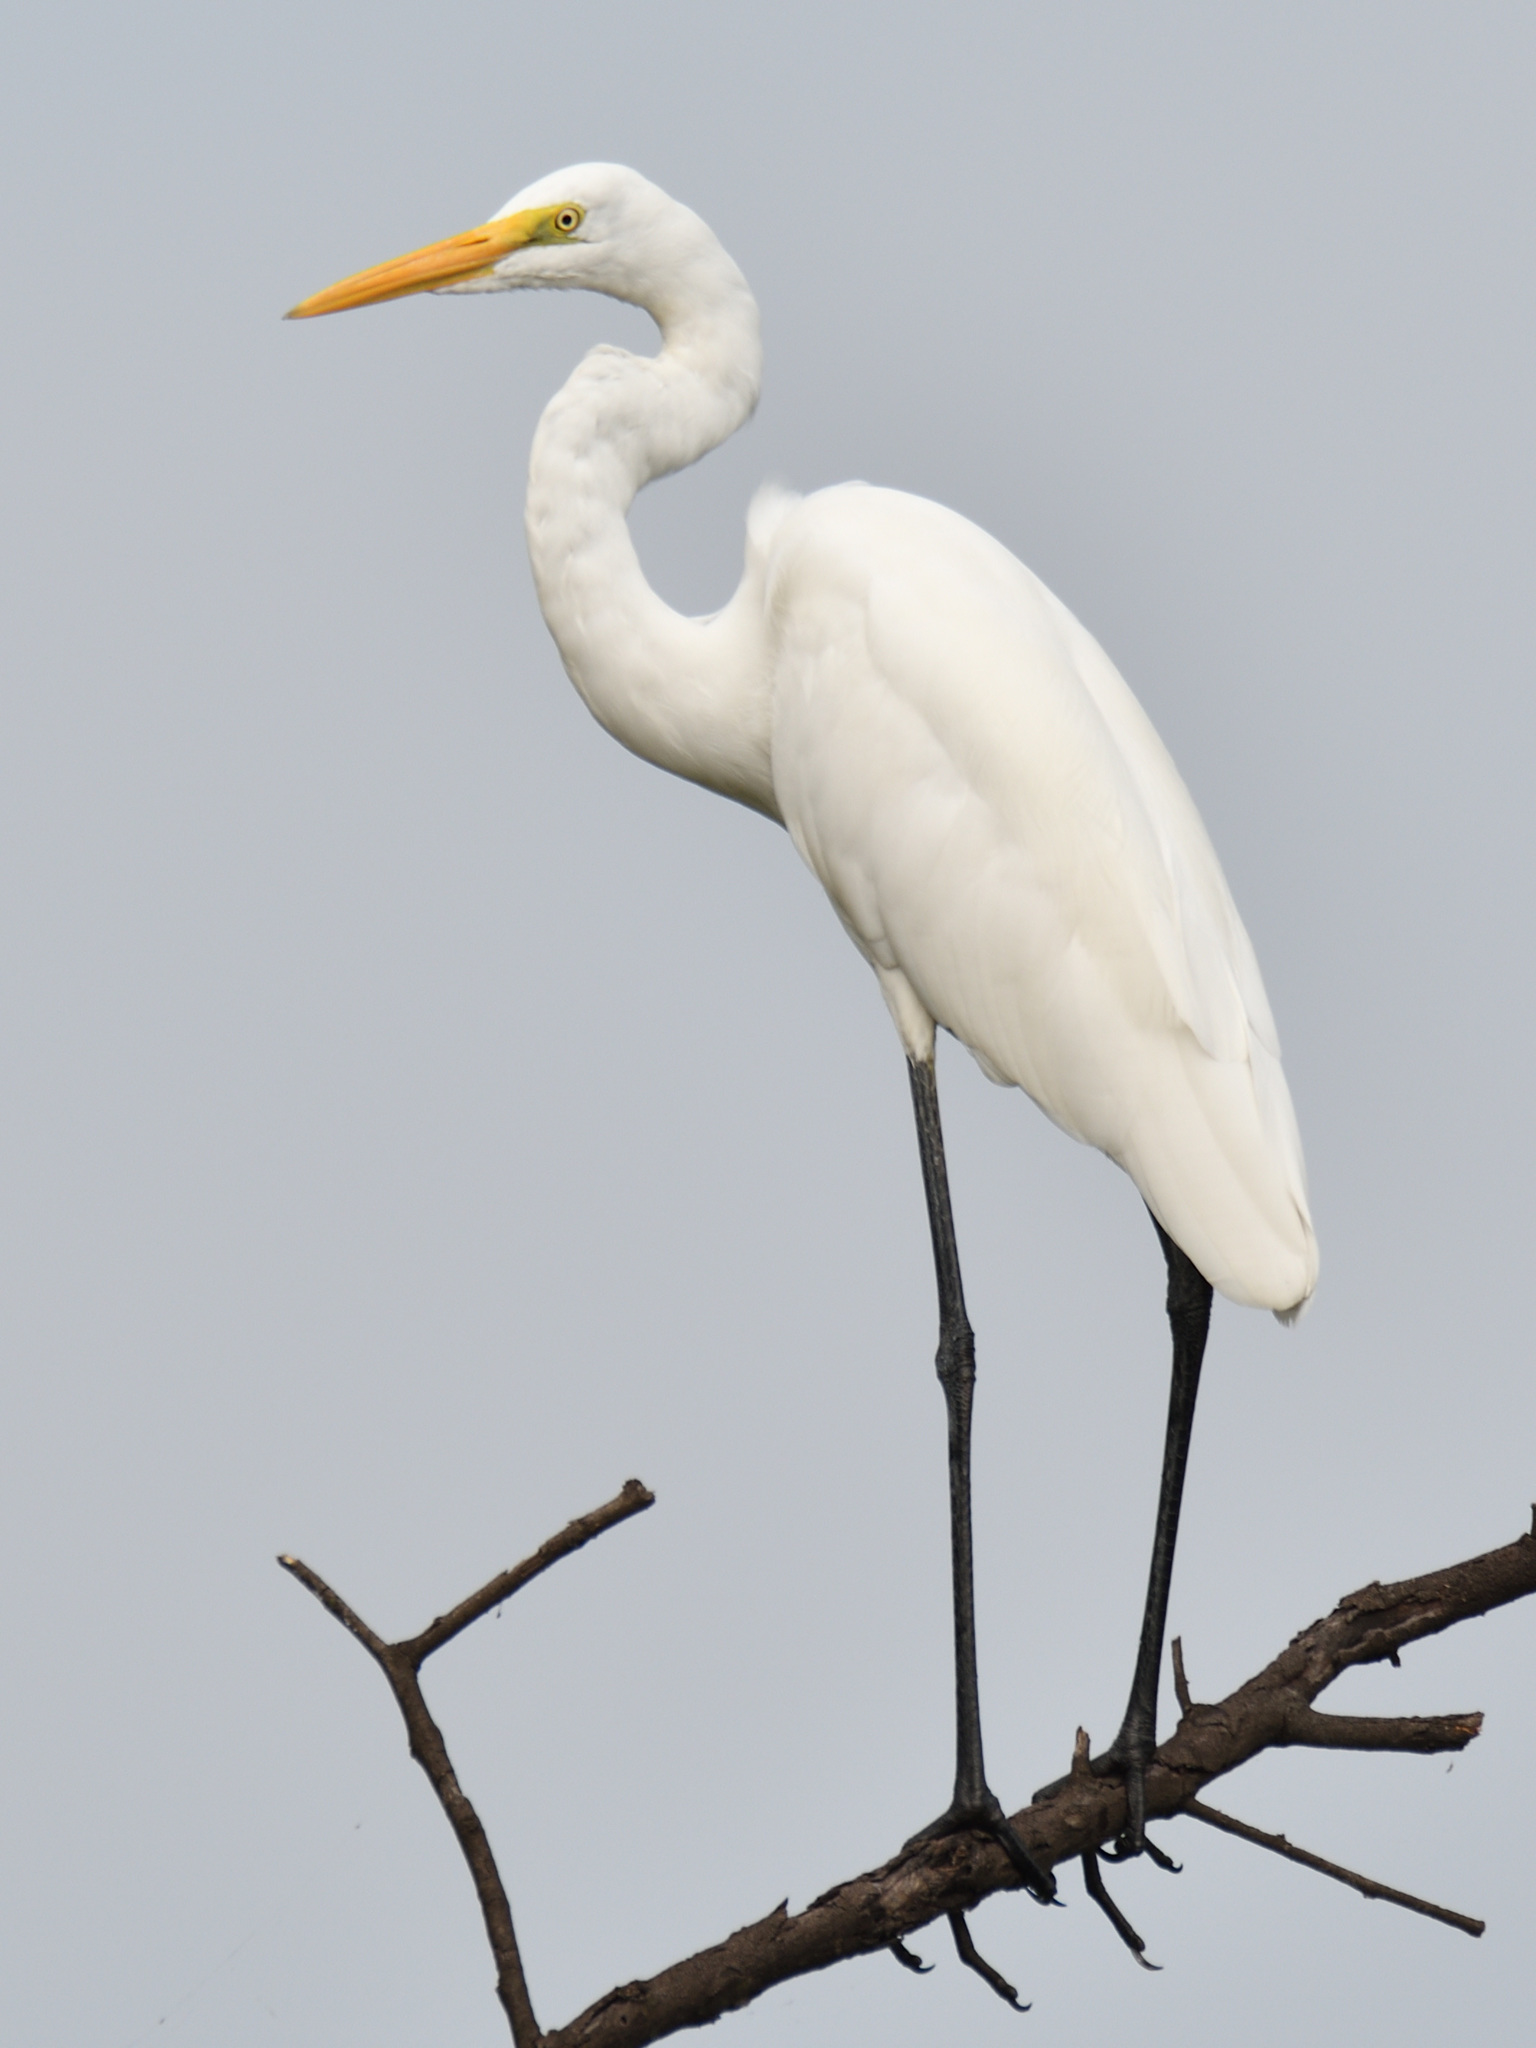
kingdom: Animalia
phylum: Chordata
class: Aves
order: Pelecaniformes
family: Ardeidae
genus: Ardea
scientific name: Ardea alba
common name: Great egret
